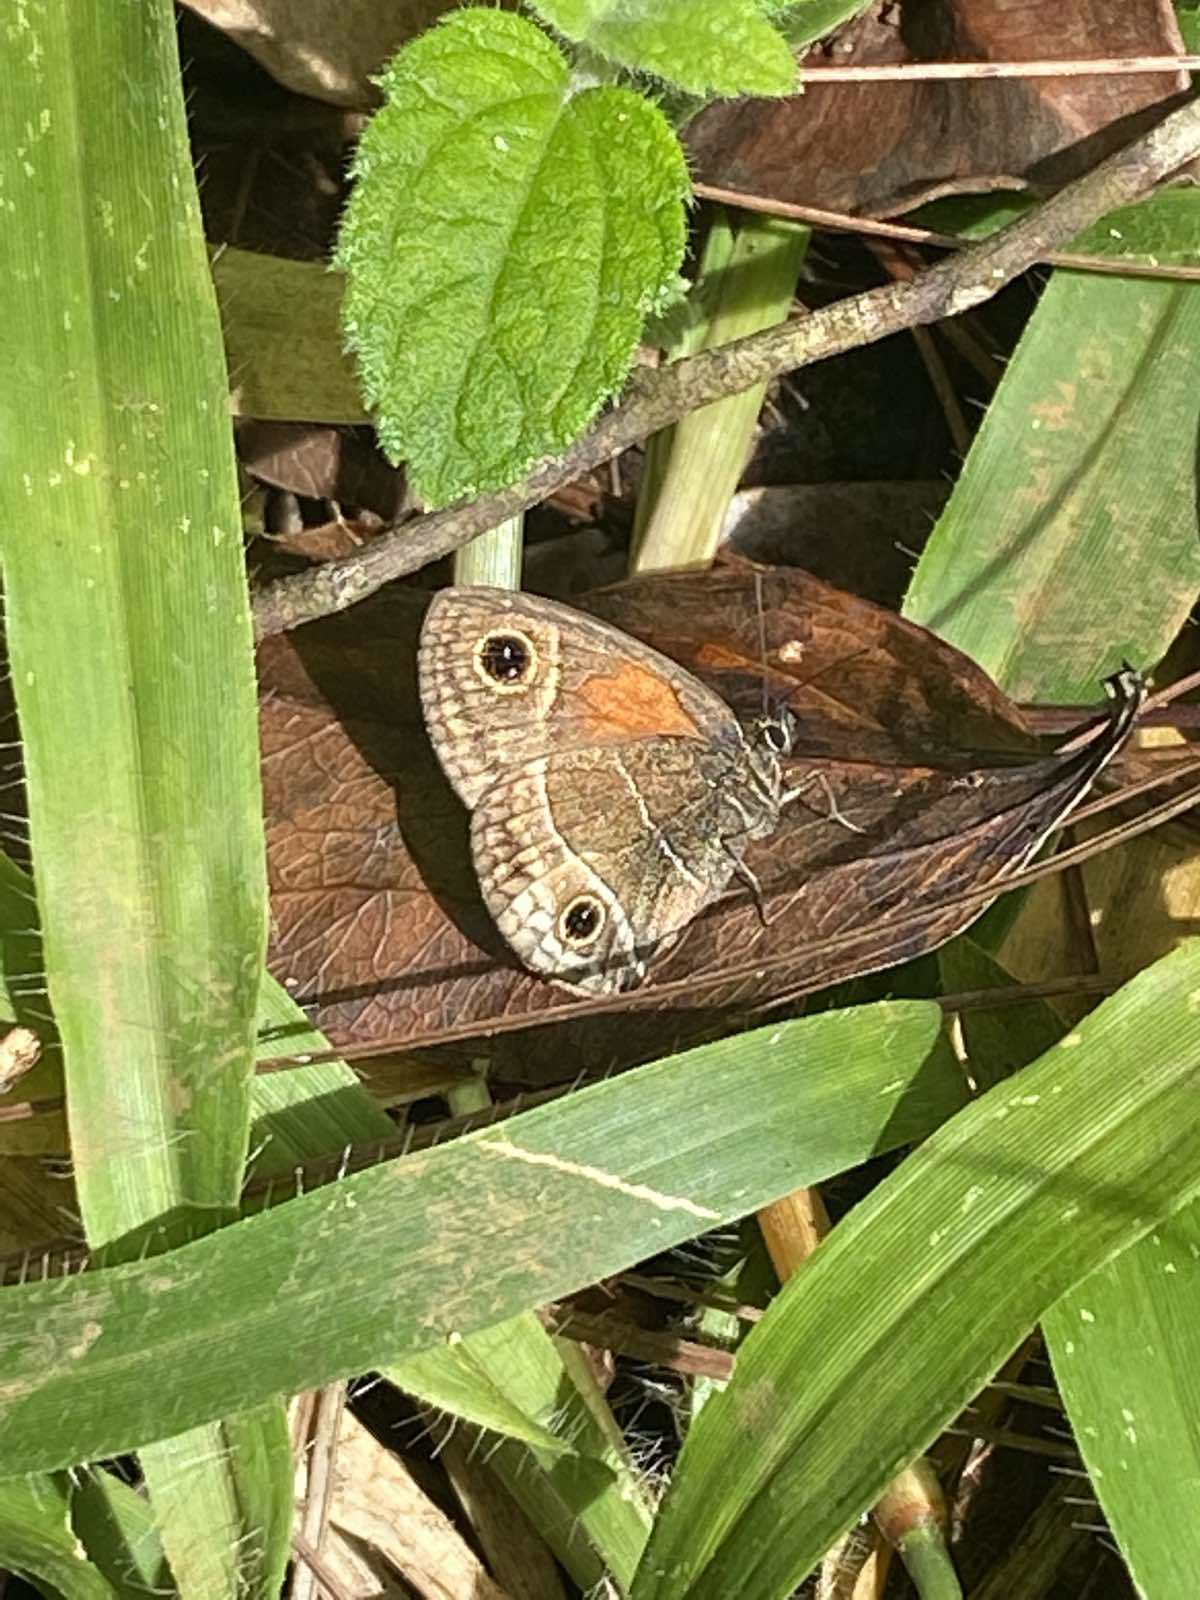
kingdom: Animalia
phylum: Arthropoda
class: Insecta
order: Lepidoptera
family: Nymphalidae
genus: Calisto
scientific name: Calisto confusa
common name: Confused calisto
